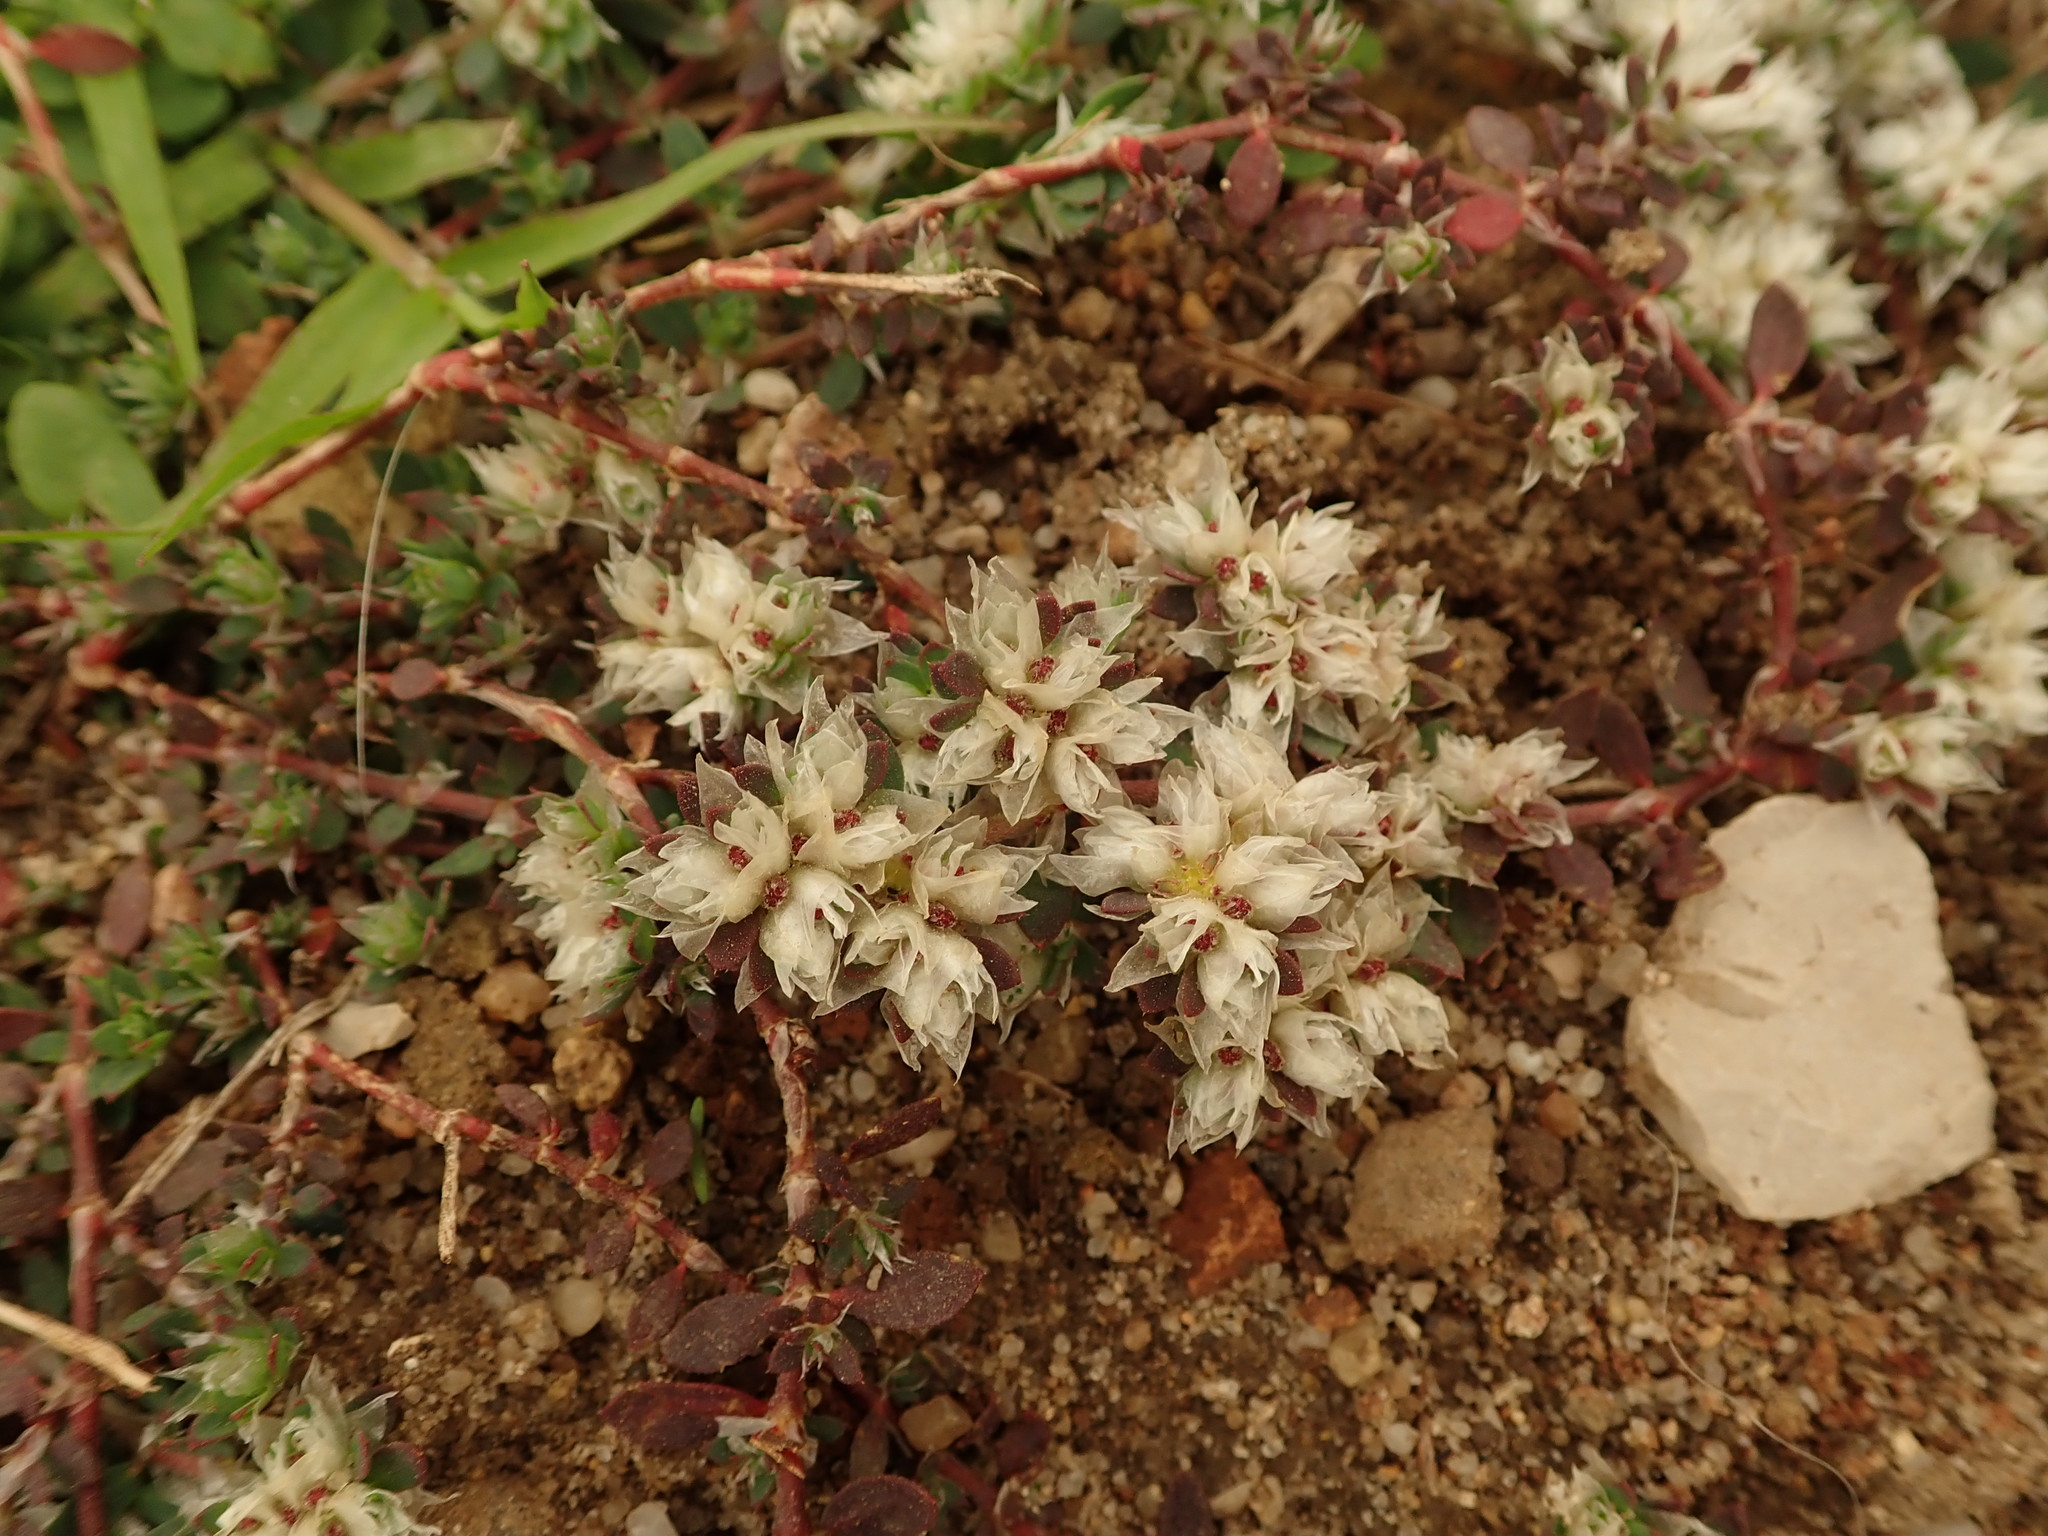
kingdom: Plantae
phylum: Tracheophyta
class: Magnoliopsida
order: Caryophyllales
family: Caryophyllaceae
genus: Paronychia
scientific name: Paronychia argentea
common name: Silver nailroot
